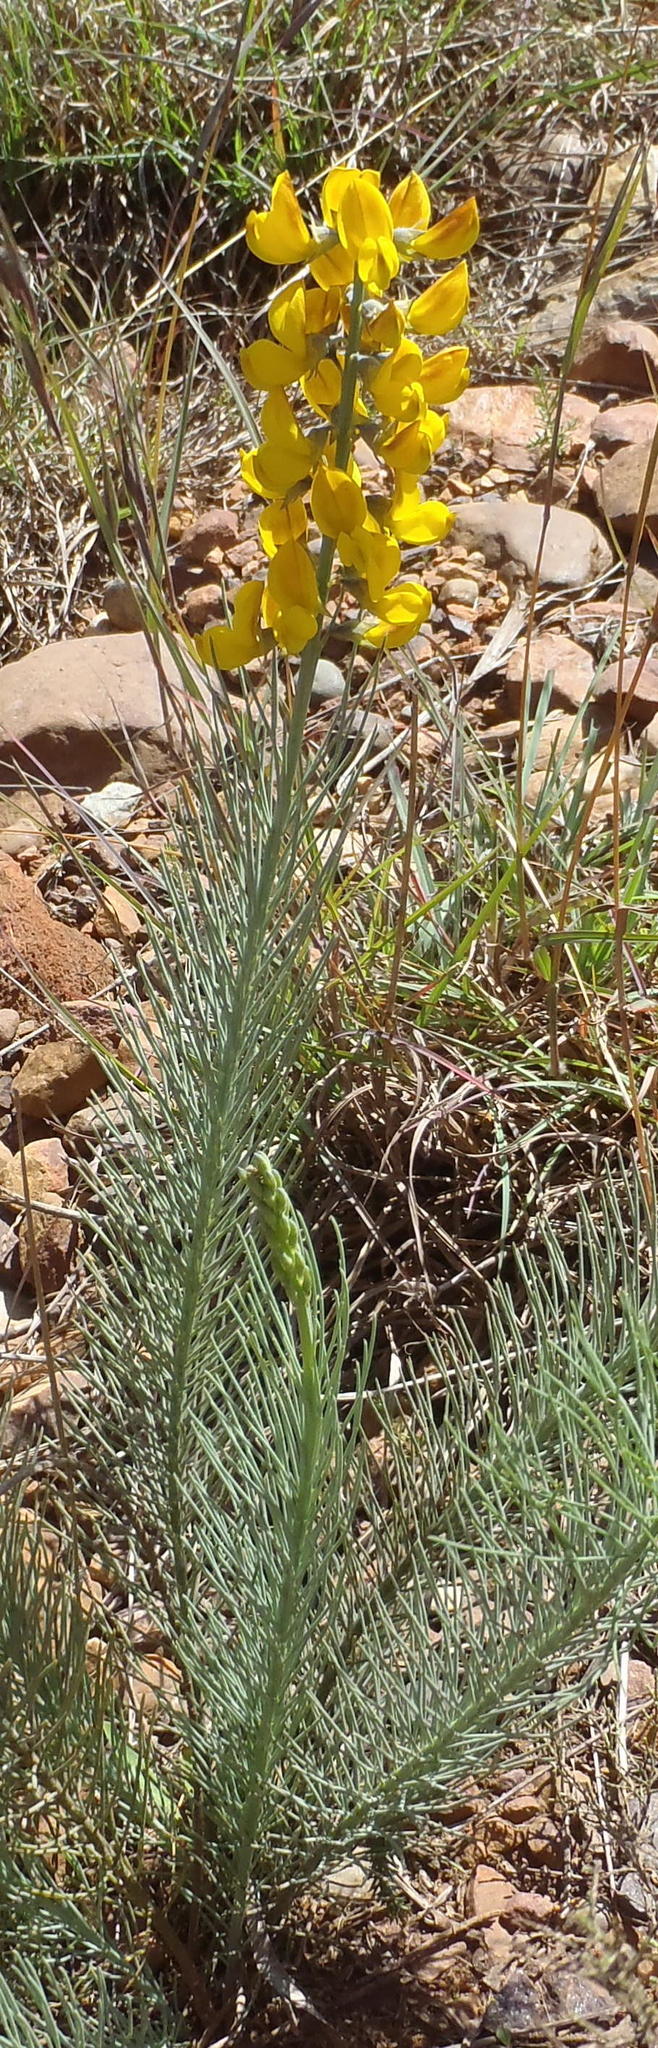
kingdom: Plantae
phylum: Tracheophyta
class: Magnoliopsida
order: Fabales
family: Fabaceae
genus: Lebeckia
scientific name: Lebeckia sepiaria
